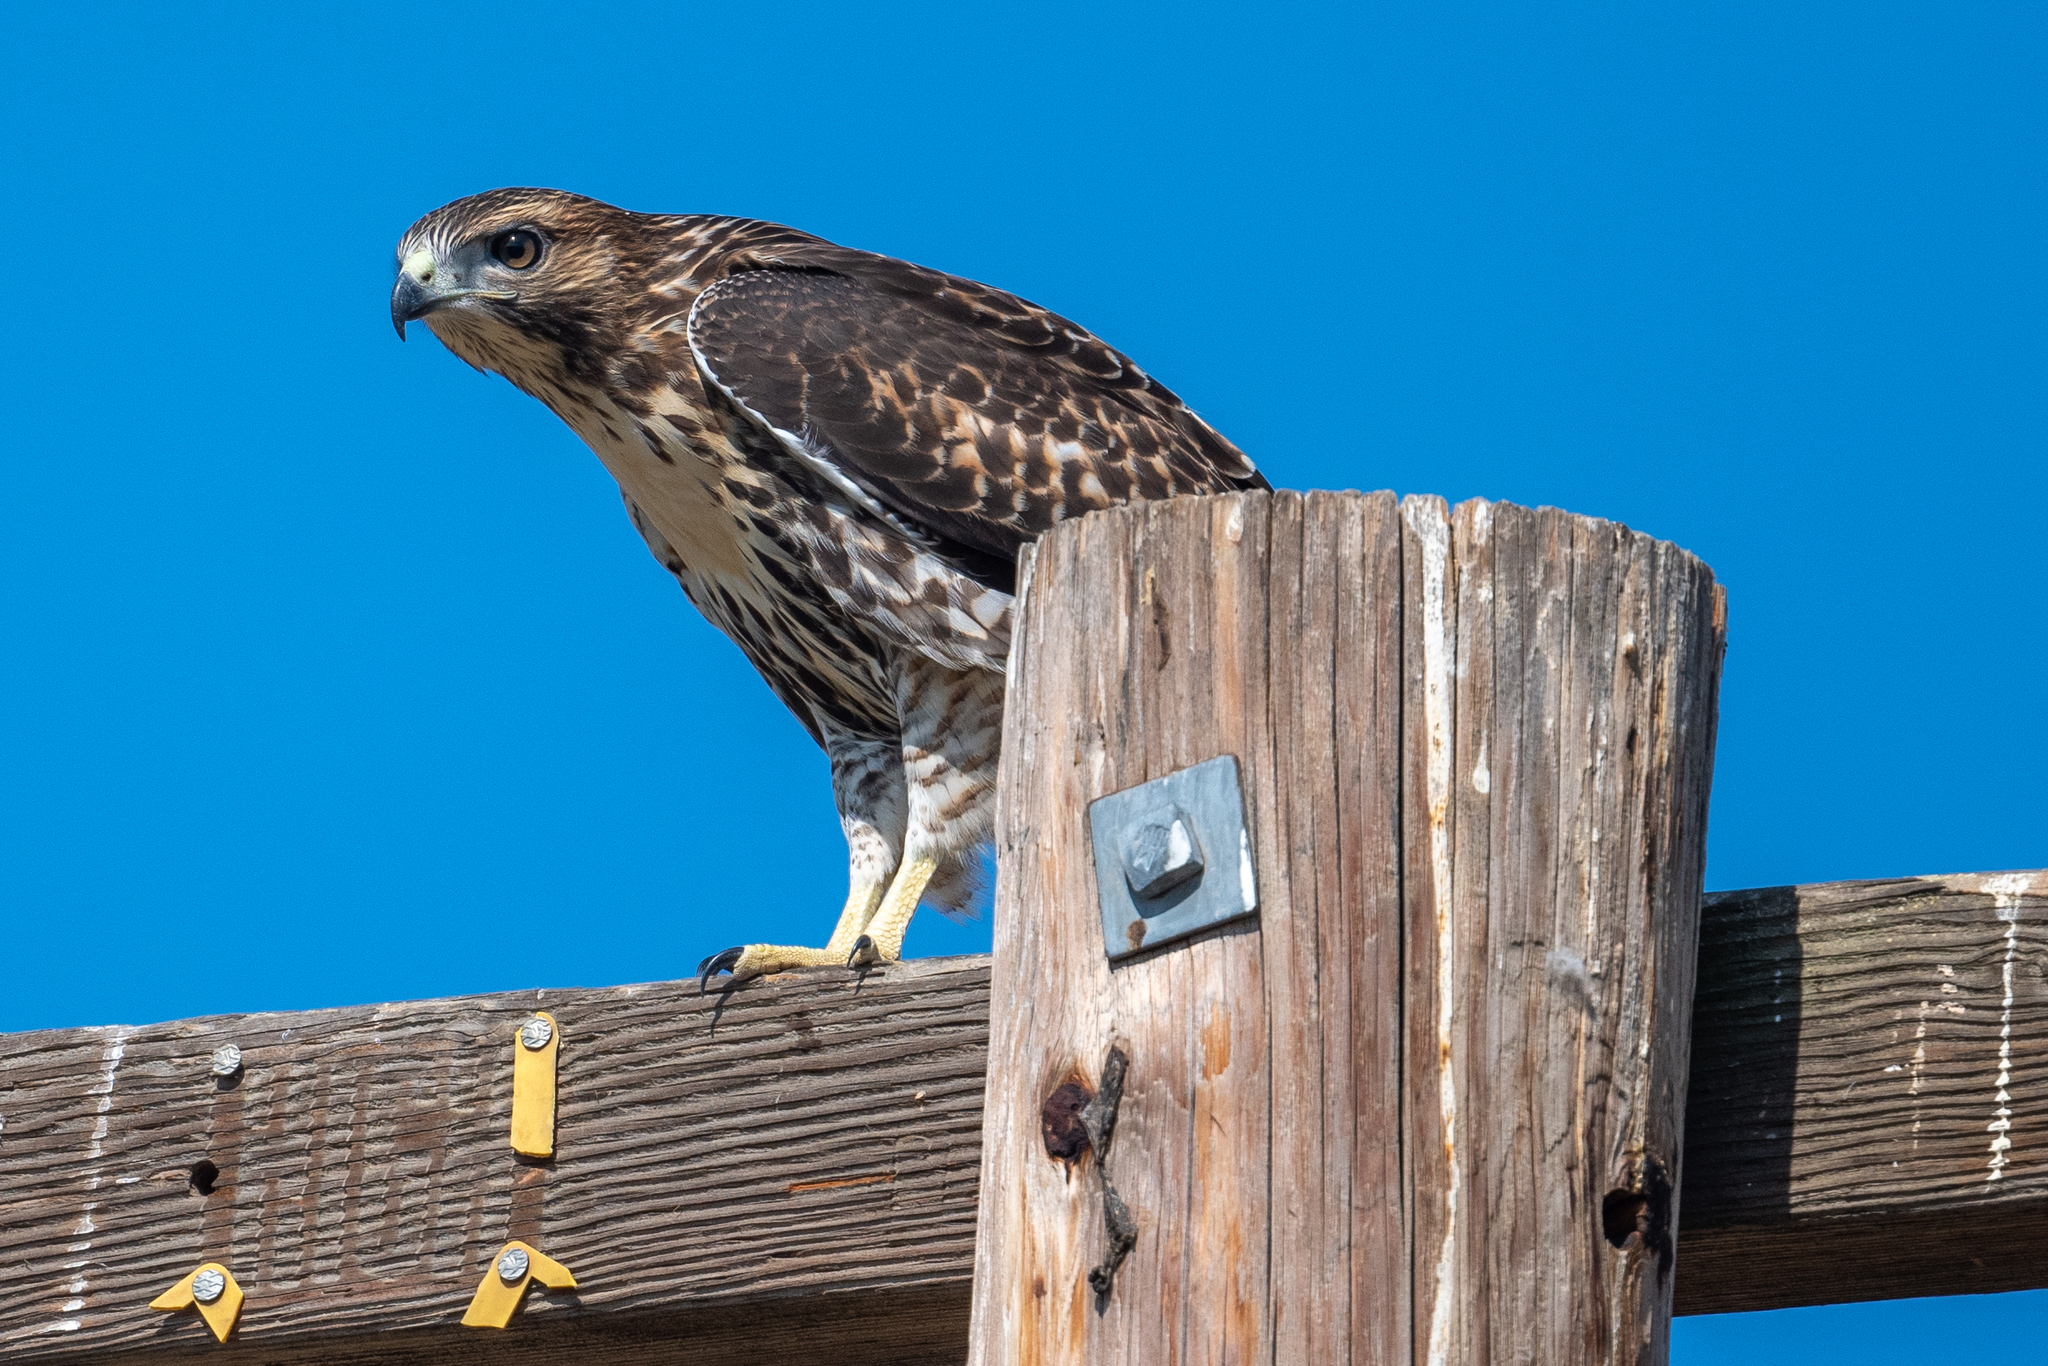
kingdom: Animalia
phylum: Chordata
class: Aves
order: Accipitriformes
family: Accipitridae
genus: Buteo
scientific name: Buteo jamaicensis
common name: Red-tailed hawk
